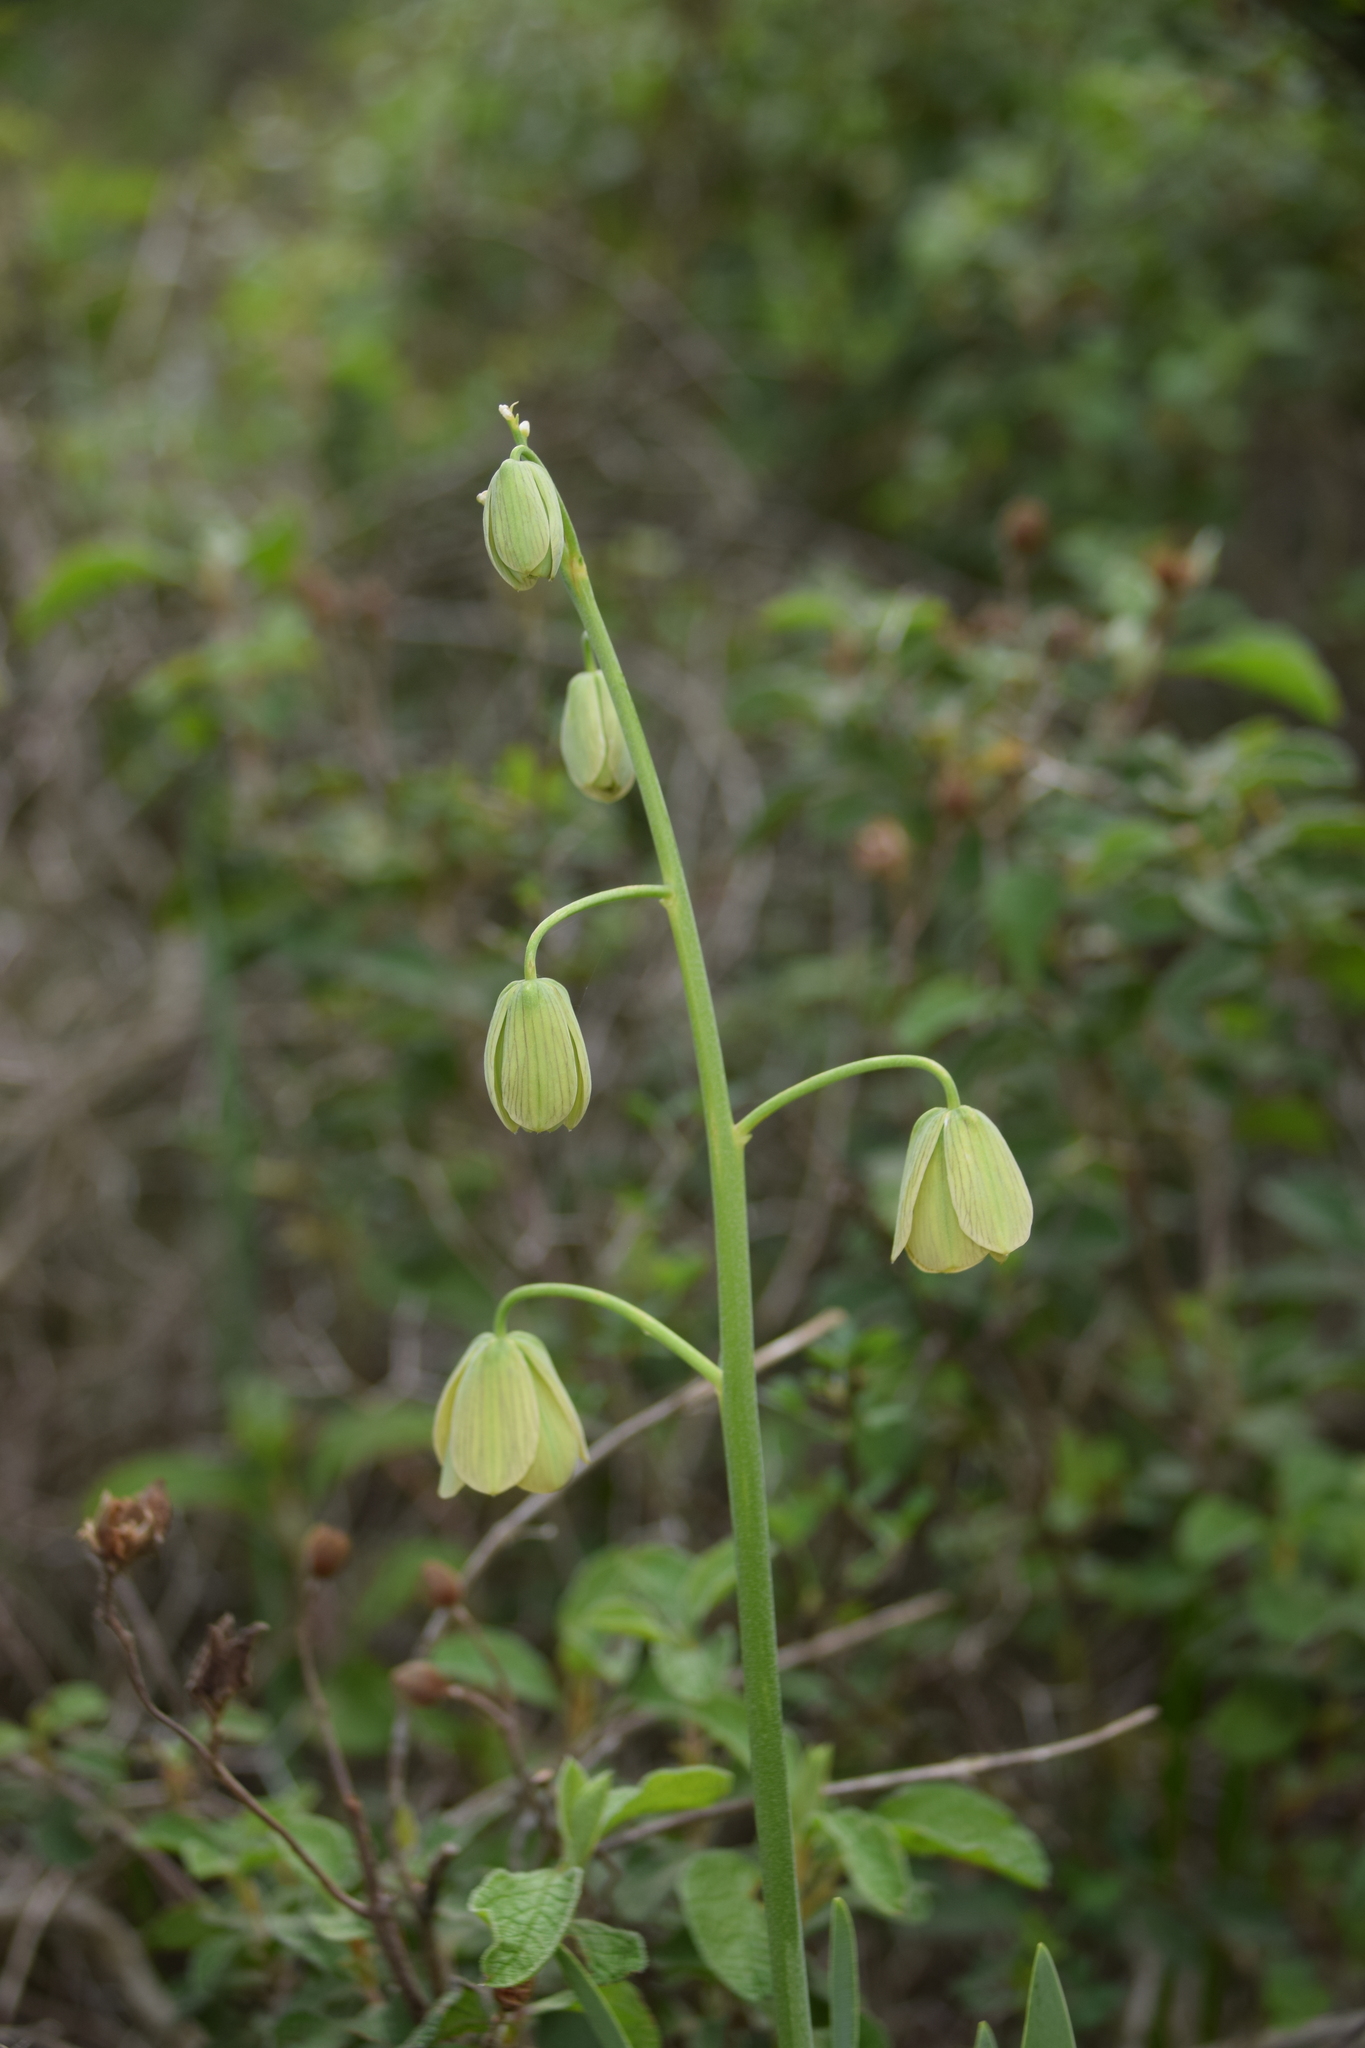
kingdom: Plantae
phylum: Tracheophyta
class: Liliopsida
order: Liliales
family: Liliaceae
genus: Fritillaria
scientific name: Fritillaria persica
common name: Persian fritillary
